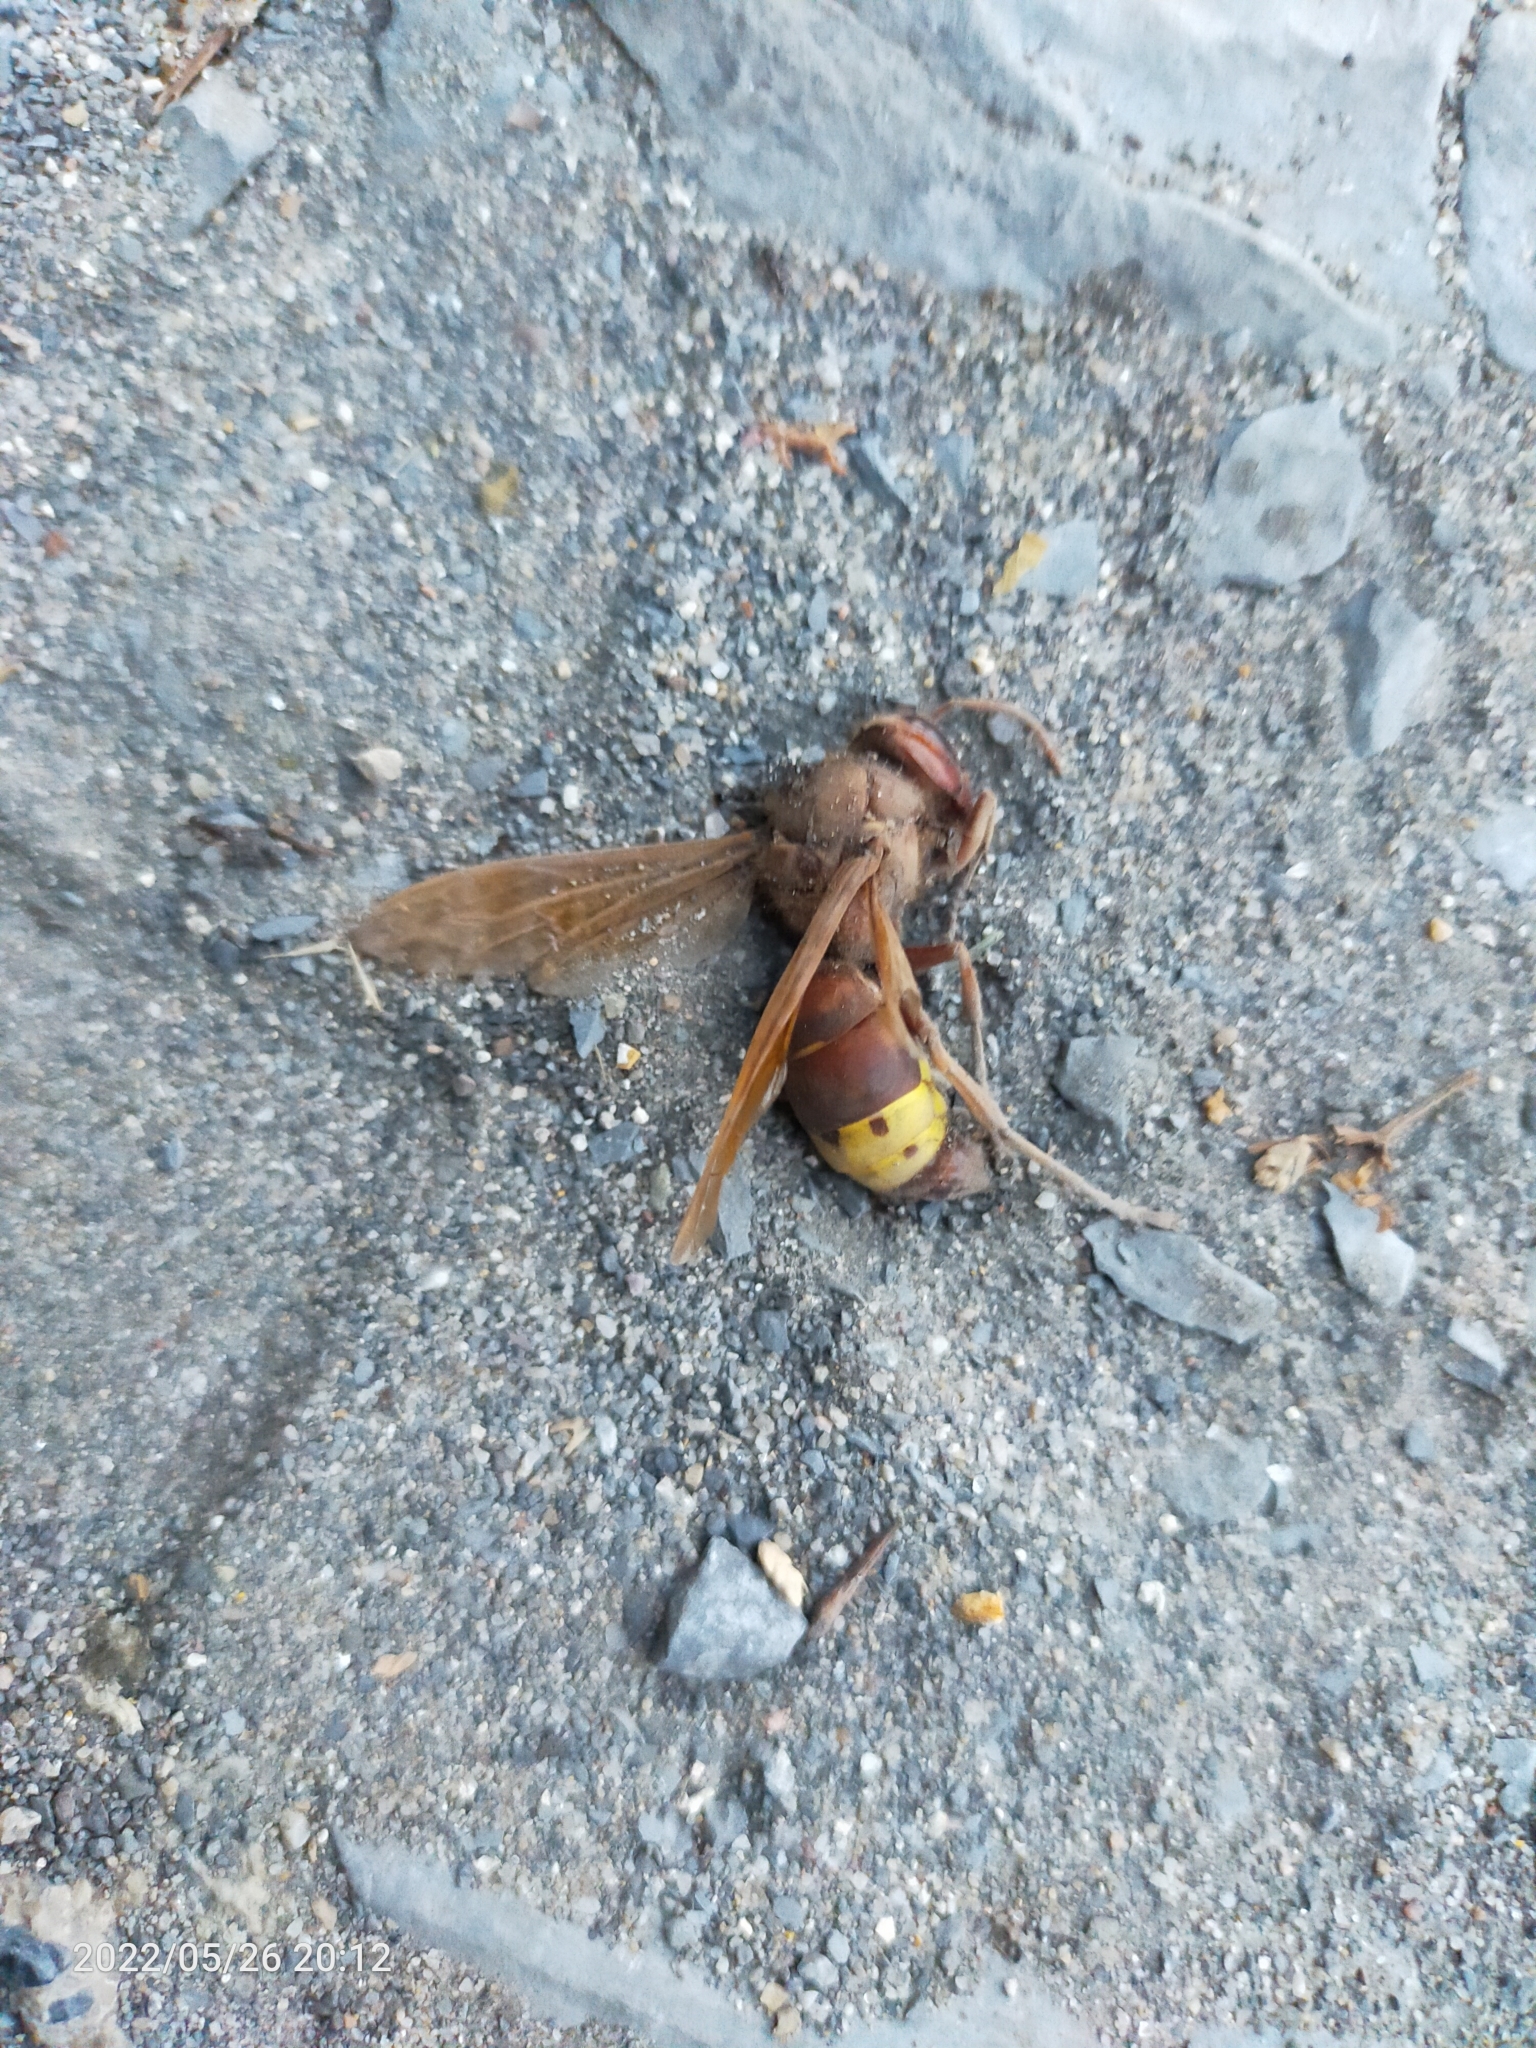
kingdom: Animalia
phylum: Arthropoda
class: Insecta
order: Hymenoptera
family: Vespidae
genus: Vespa
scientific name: Vespa orientalis
